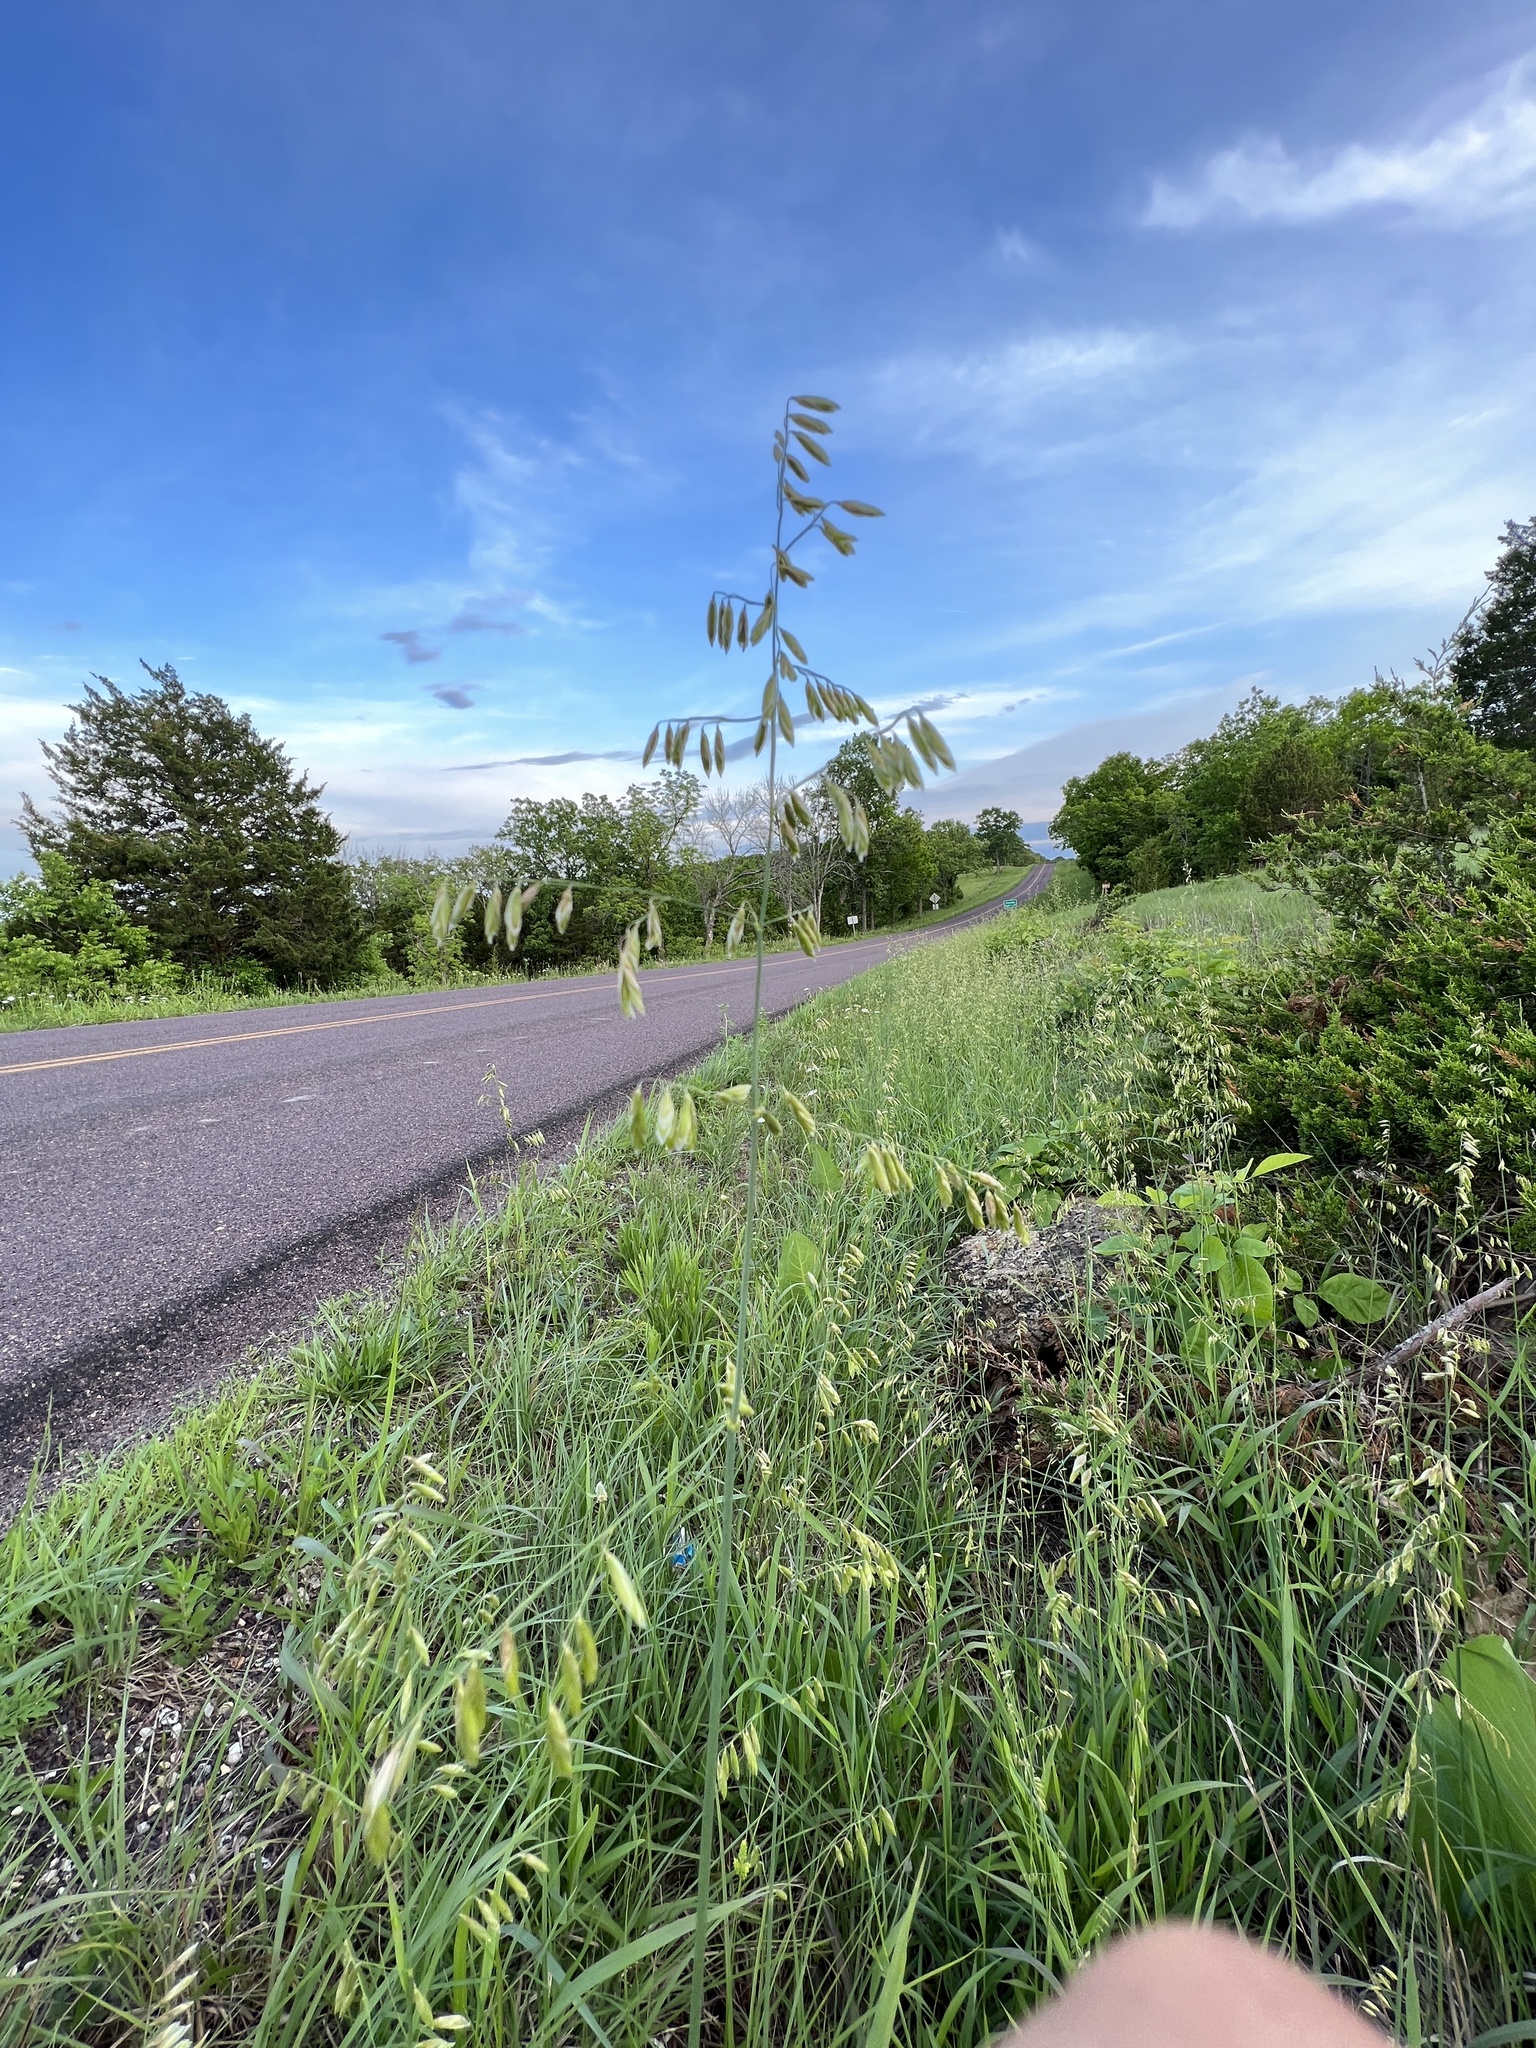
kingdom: Plantae
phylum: Tracheophyta
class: Liliopsida
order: Poales
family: Poaceae
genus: Melica
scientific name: Melica nitens
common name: Three-flower melic
